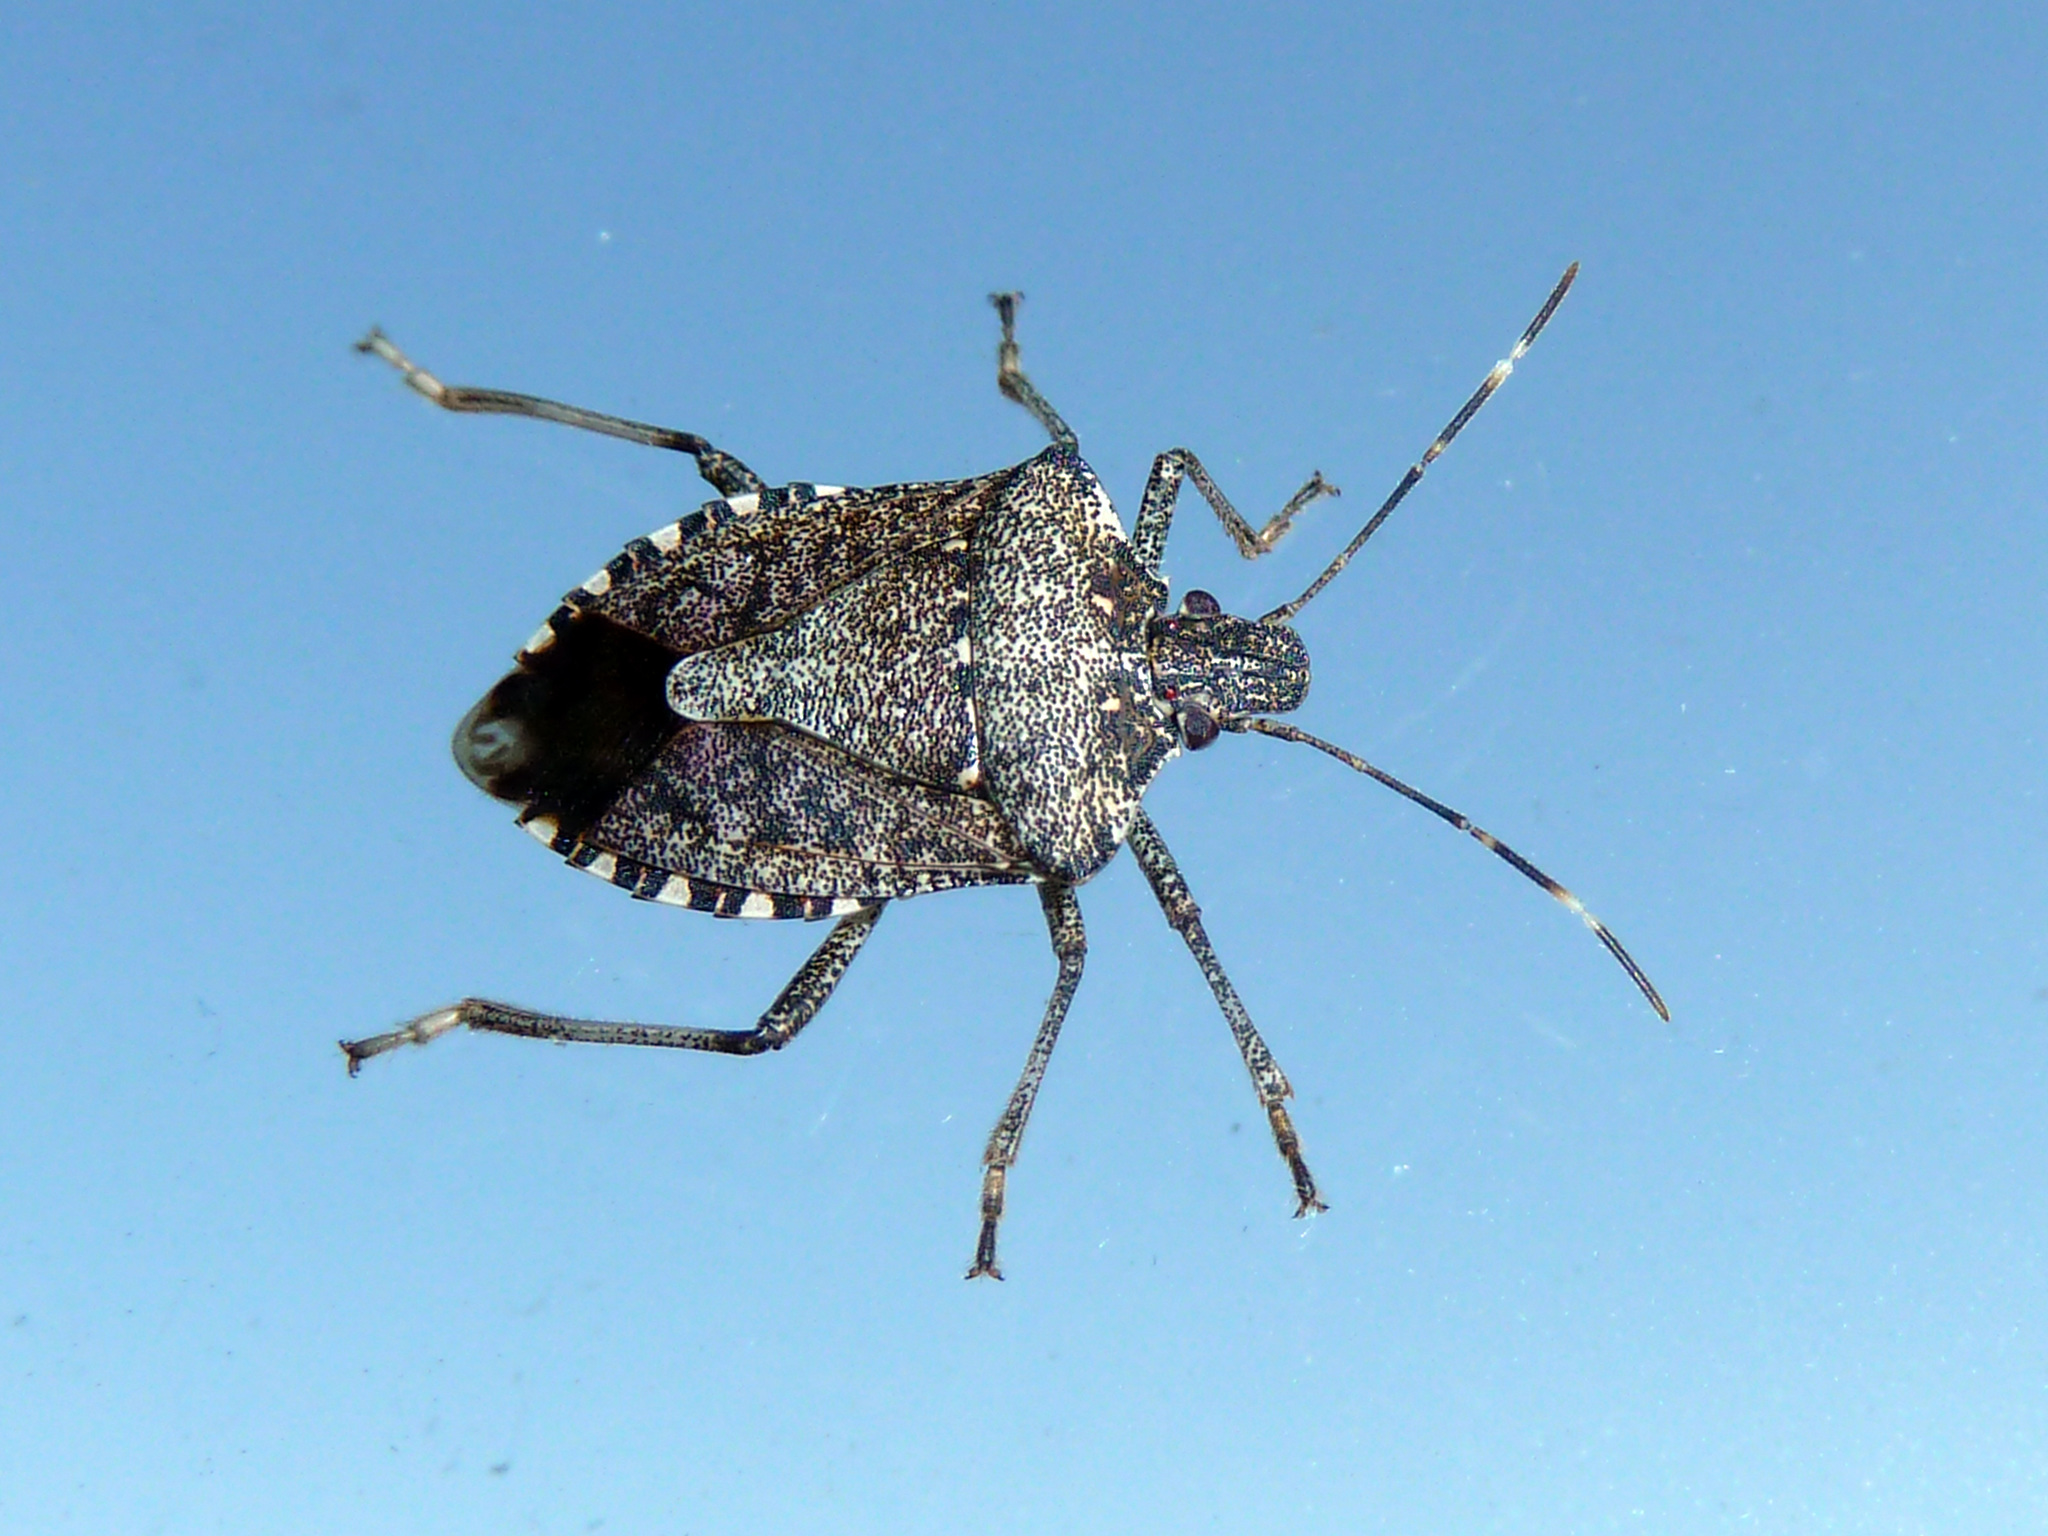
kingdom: Animalia
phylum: Arthropoda
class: Insecta
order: Hemiptera
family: Pentatomidae
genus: Halyomorpha
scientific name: Halyomorpha halys
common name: Brown marmorated stink bug
